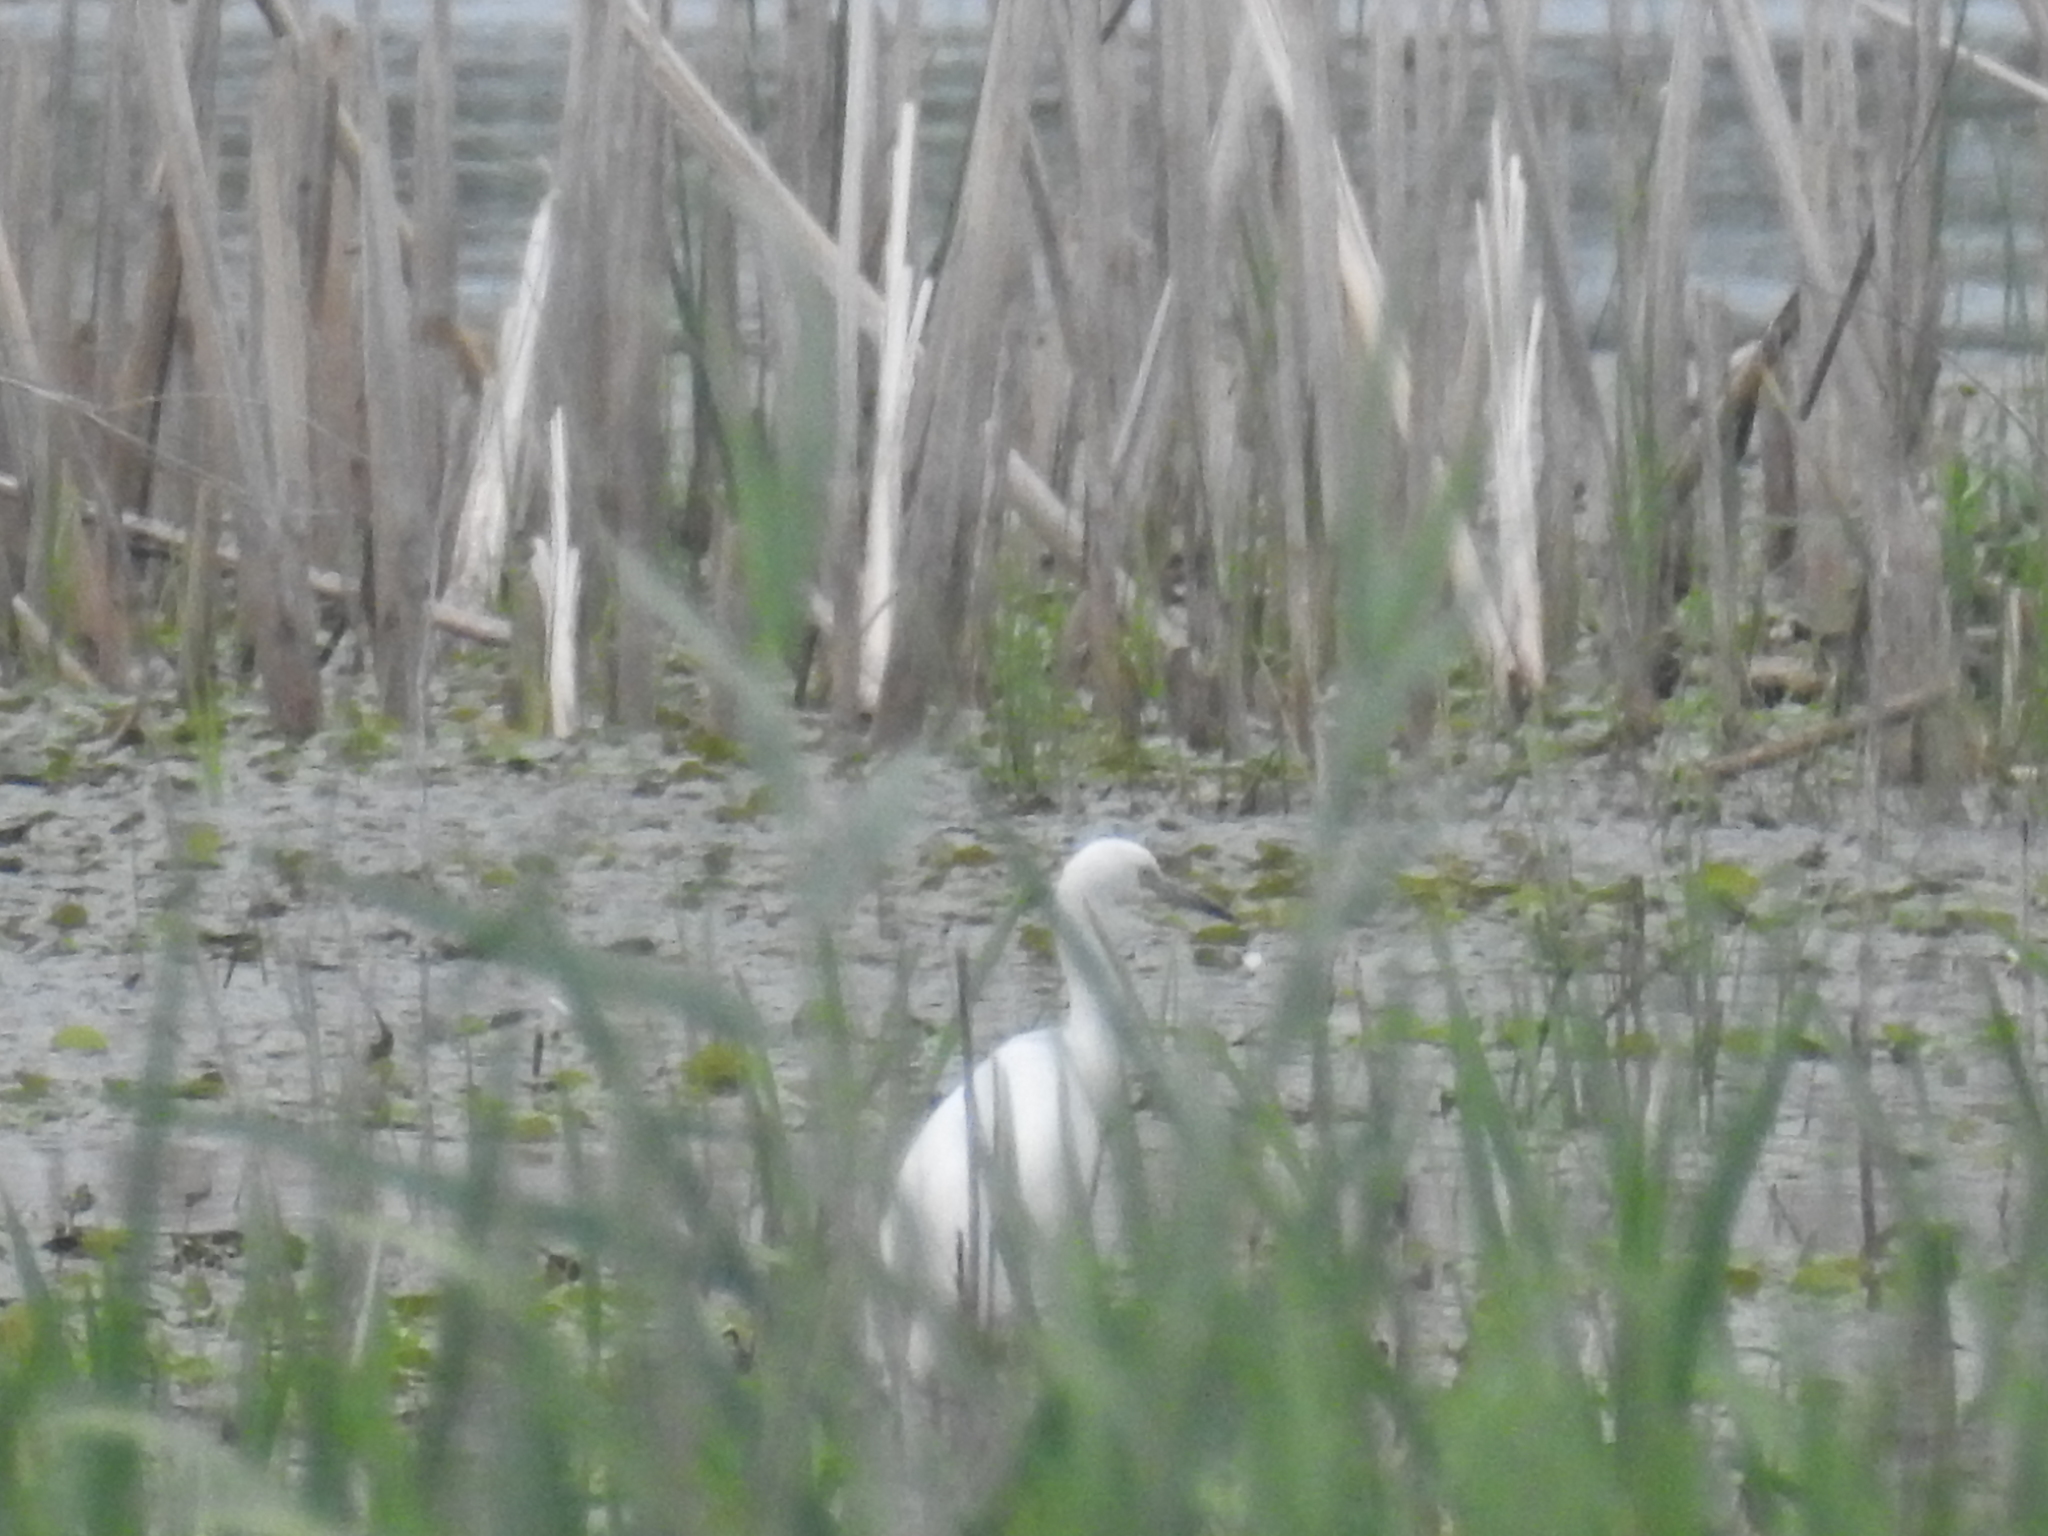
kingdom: Animalia
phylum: Chordata
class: Aves
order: Pelecaniformes
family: Ardeidae
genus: Egretta
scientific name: Egretta caerulea
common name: Little blue heron
